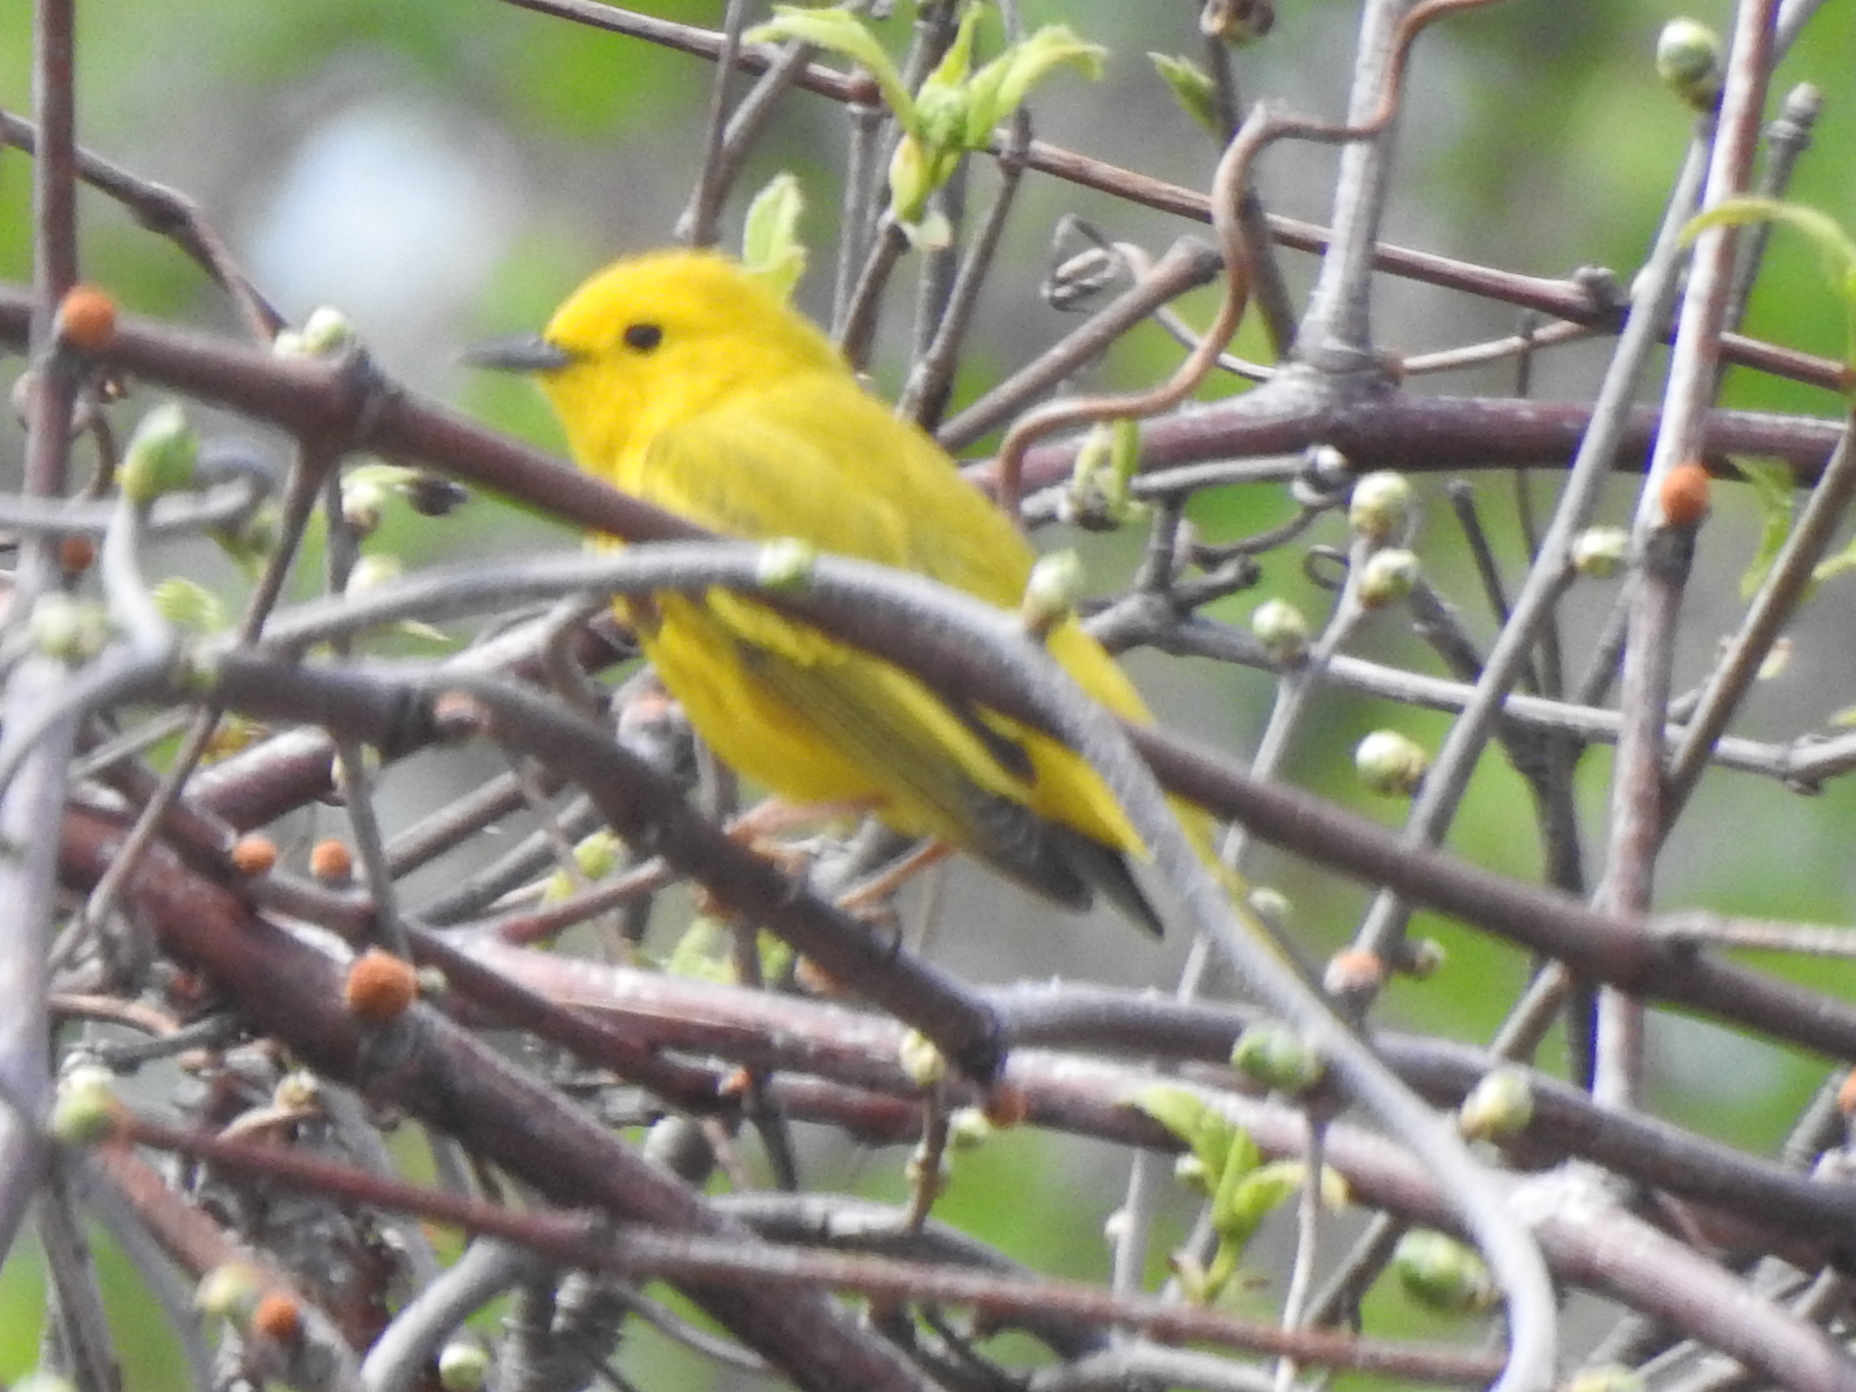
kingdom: Animalia
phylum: Chordata
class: Aves
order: Passeriformes
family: Parulidae
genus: Setophaga
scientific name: Setophaga petechia
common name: Yellow warbler
